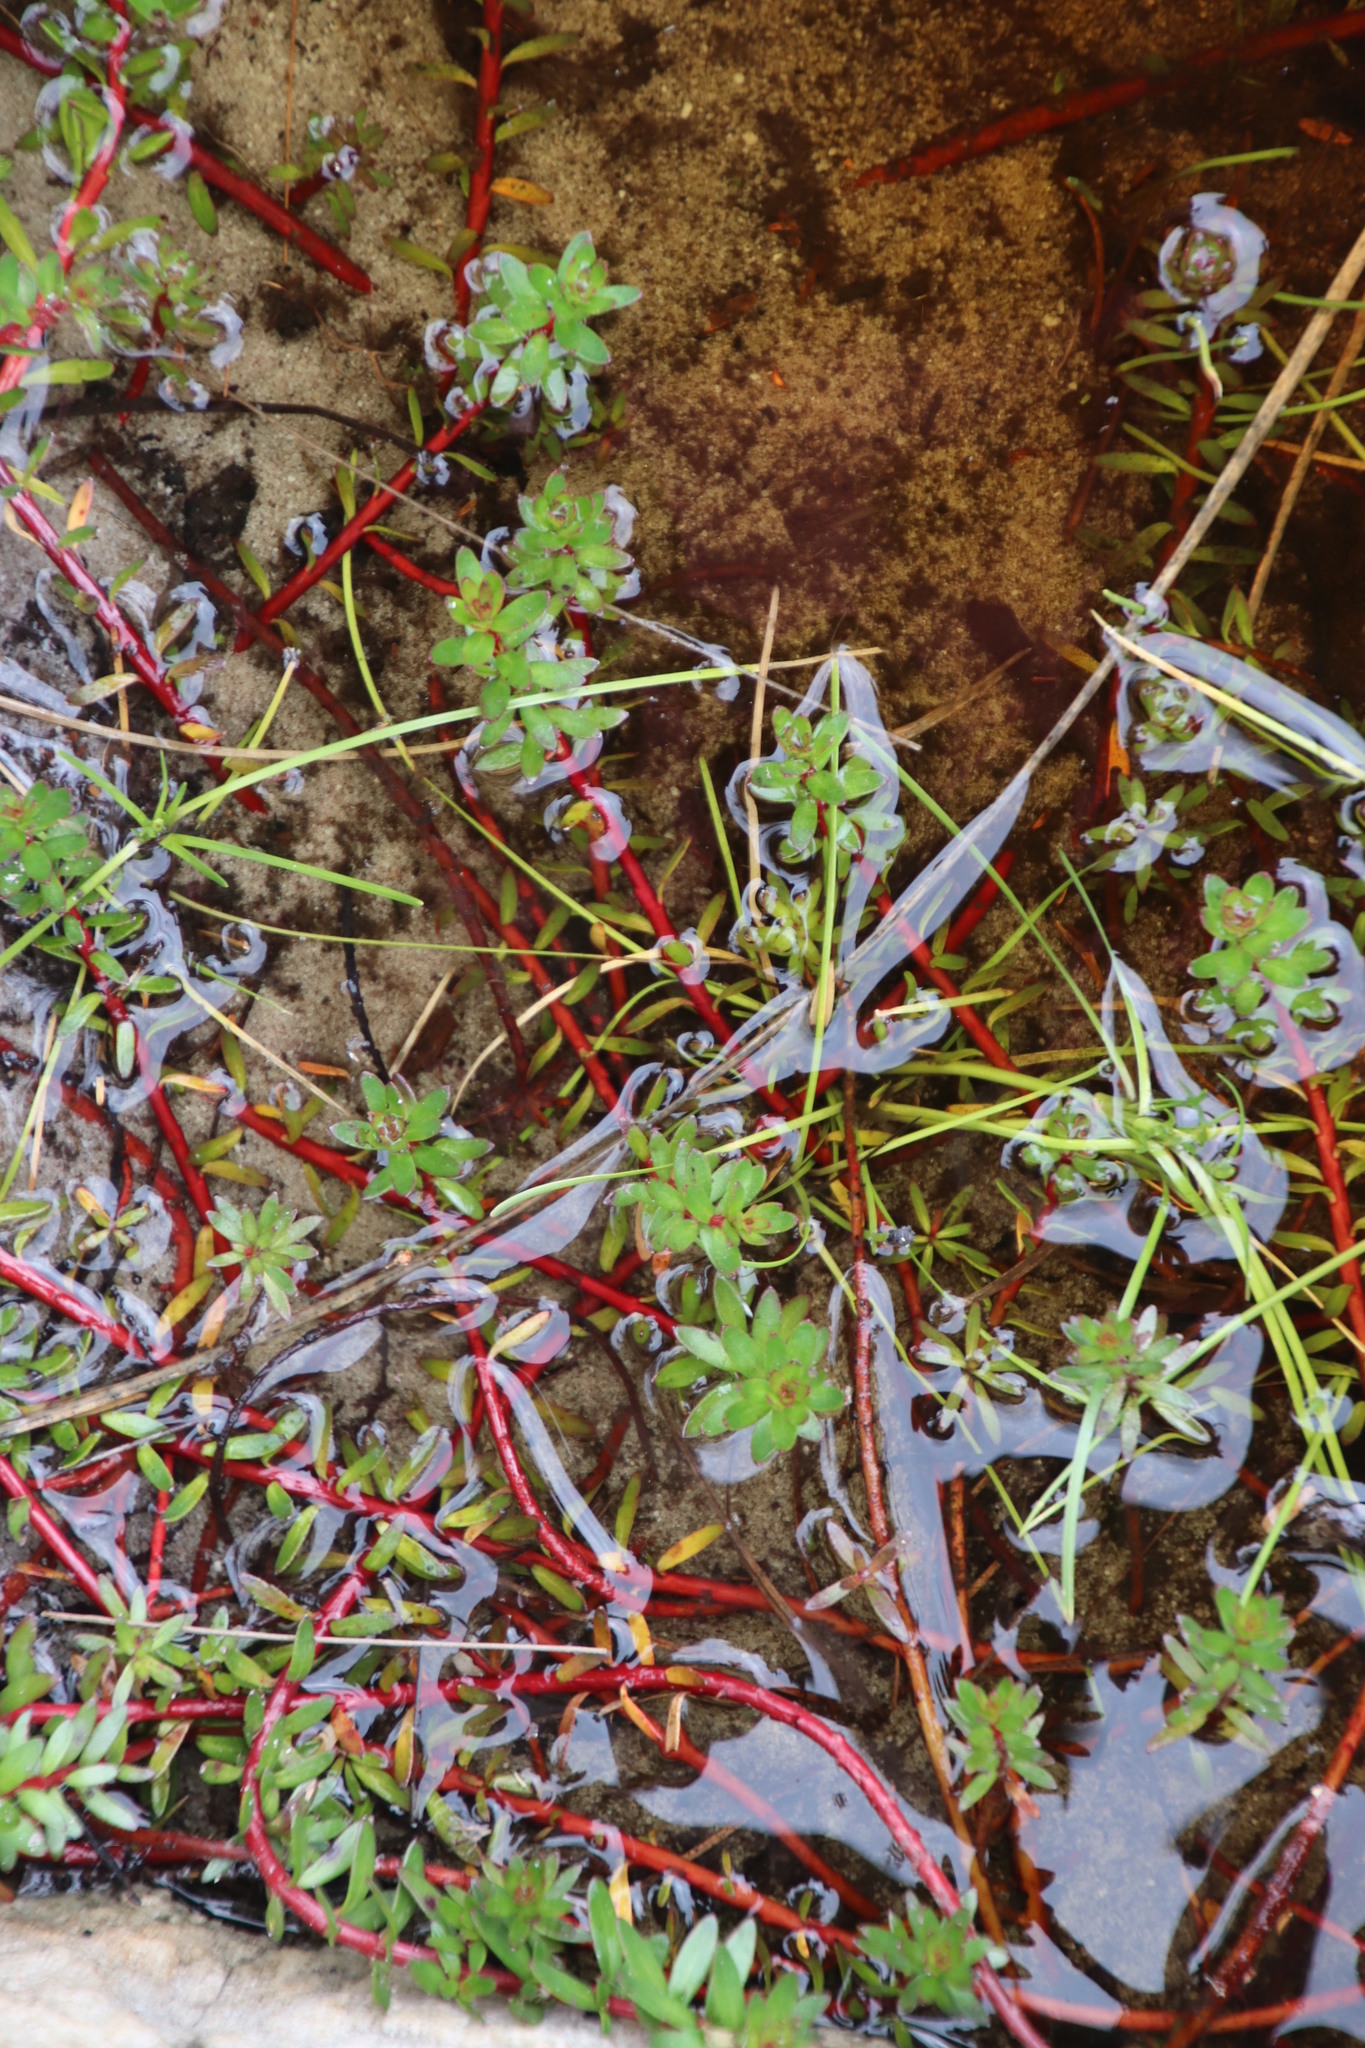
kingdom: Plantae
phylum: Tracheophyta
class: Magnoliopsida
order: Saxifragales
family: Haloragaceae
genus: Laurembergia
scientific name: Laurembergia repens
